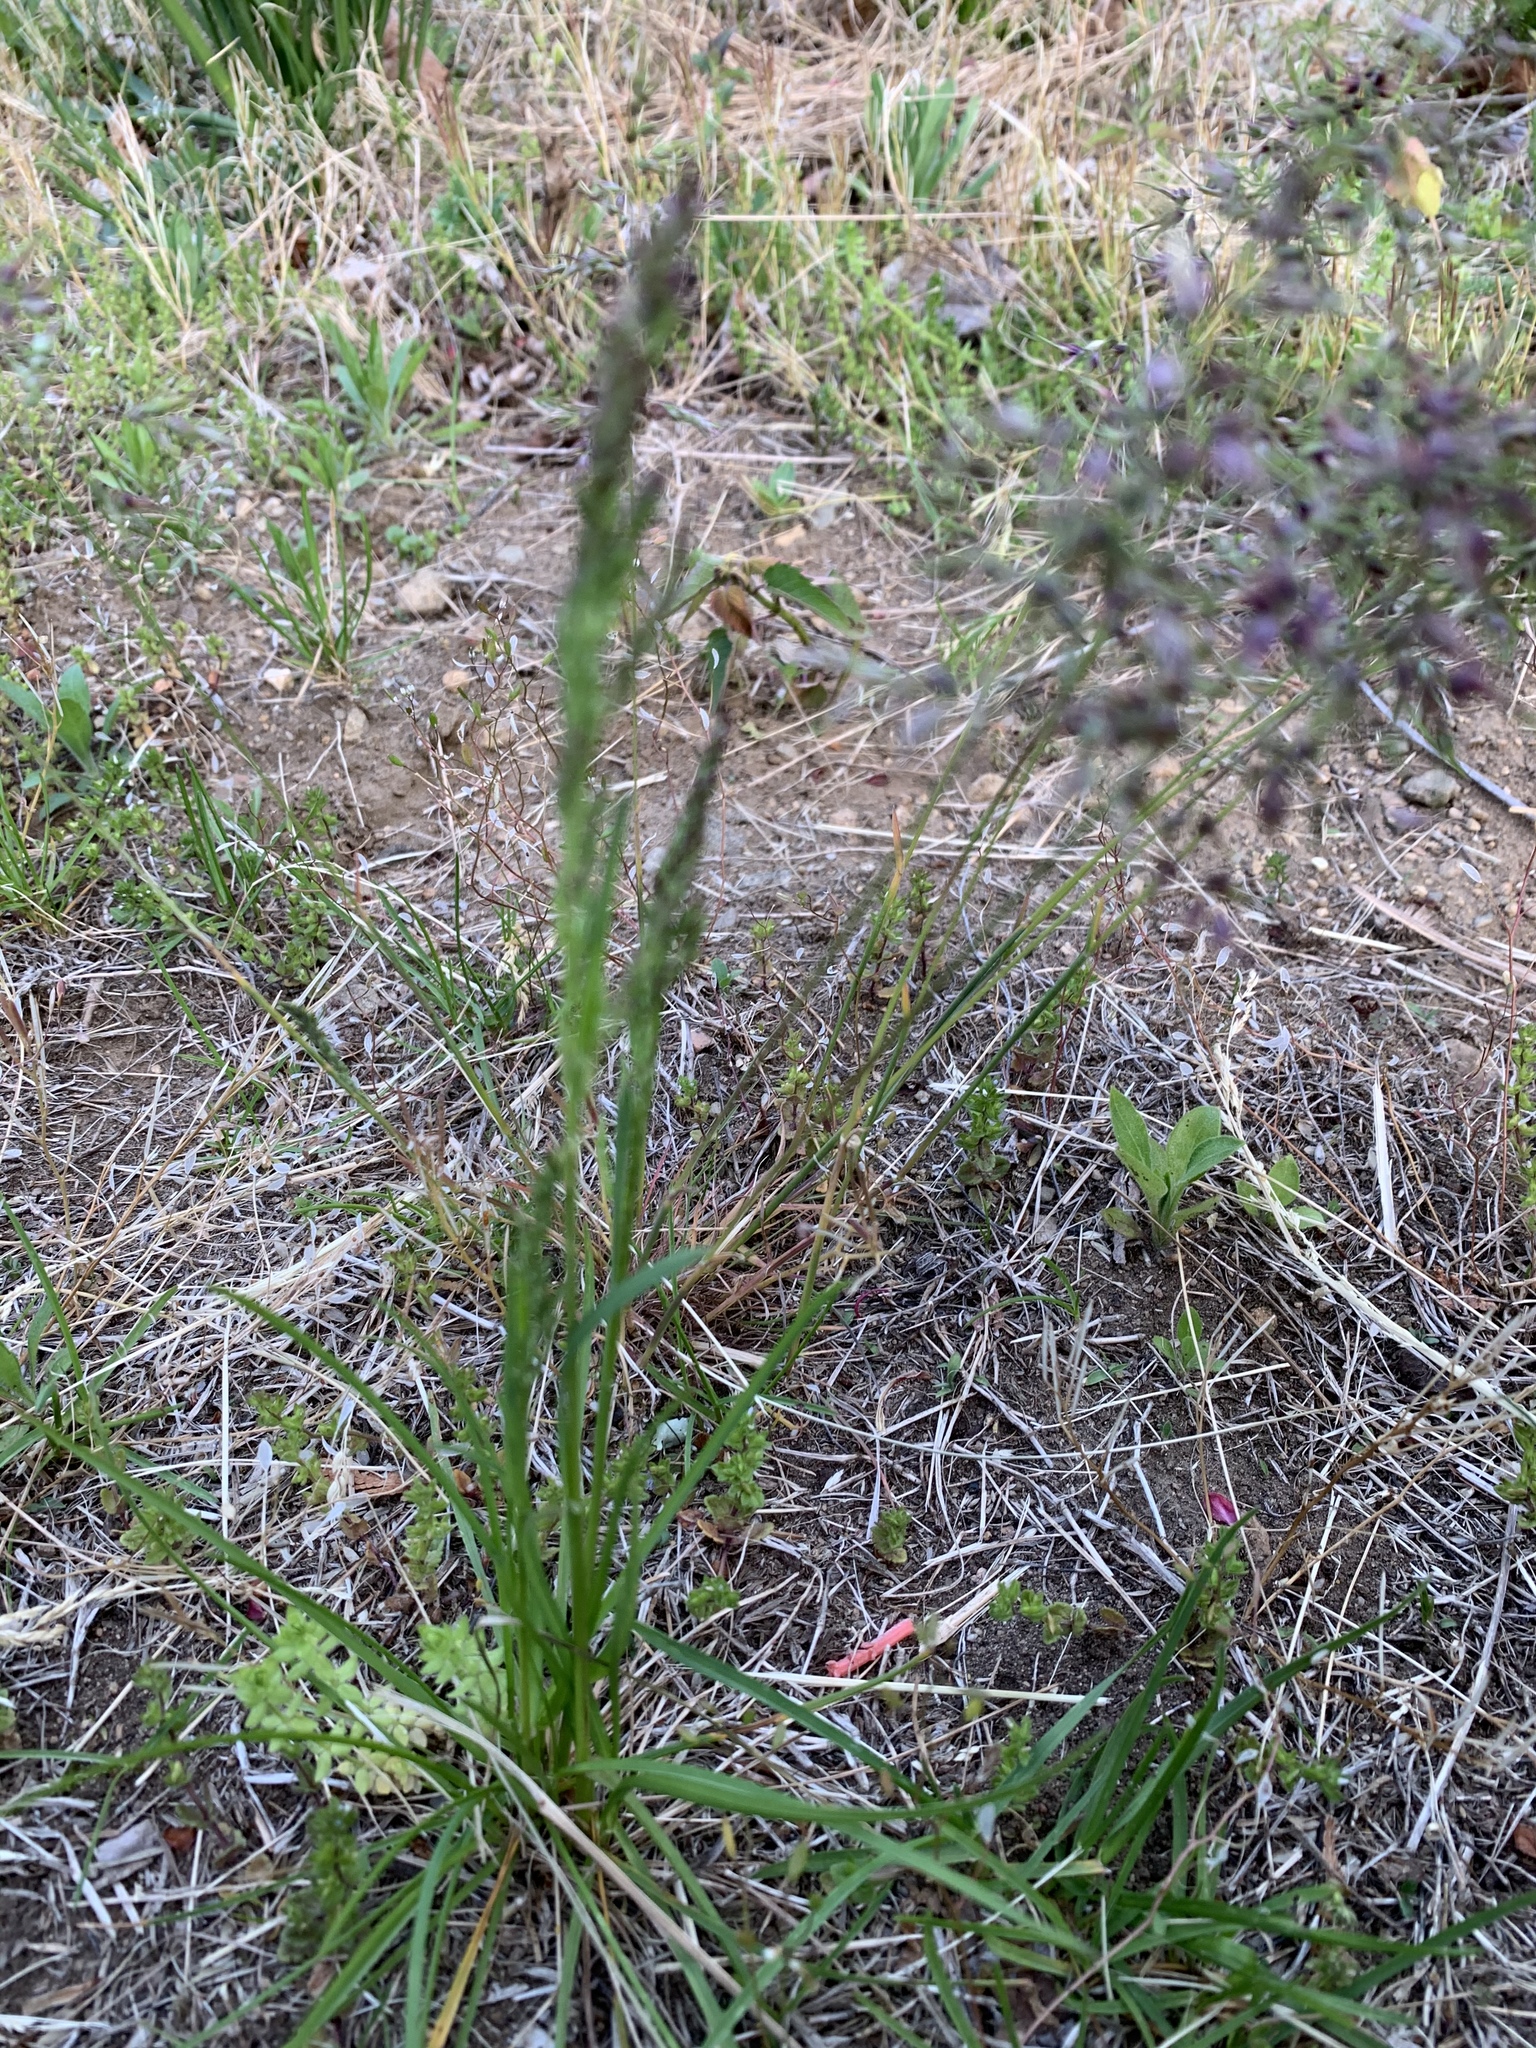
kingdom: Plantae
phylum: Tracheophyta
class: Liliopsida
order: Poales
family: Poaceae
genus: Poa
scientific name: Poa bulbosa
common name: Bulbous bluegrass
